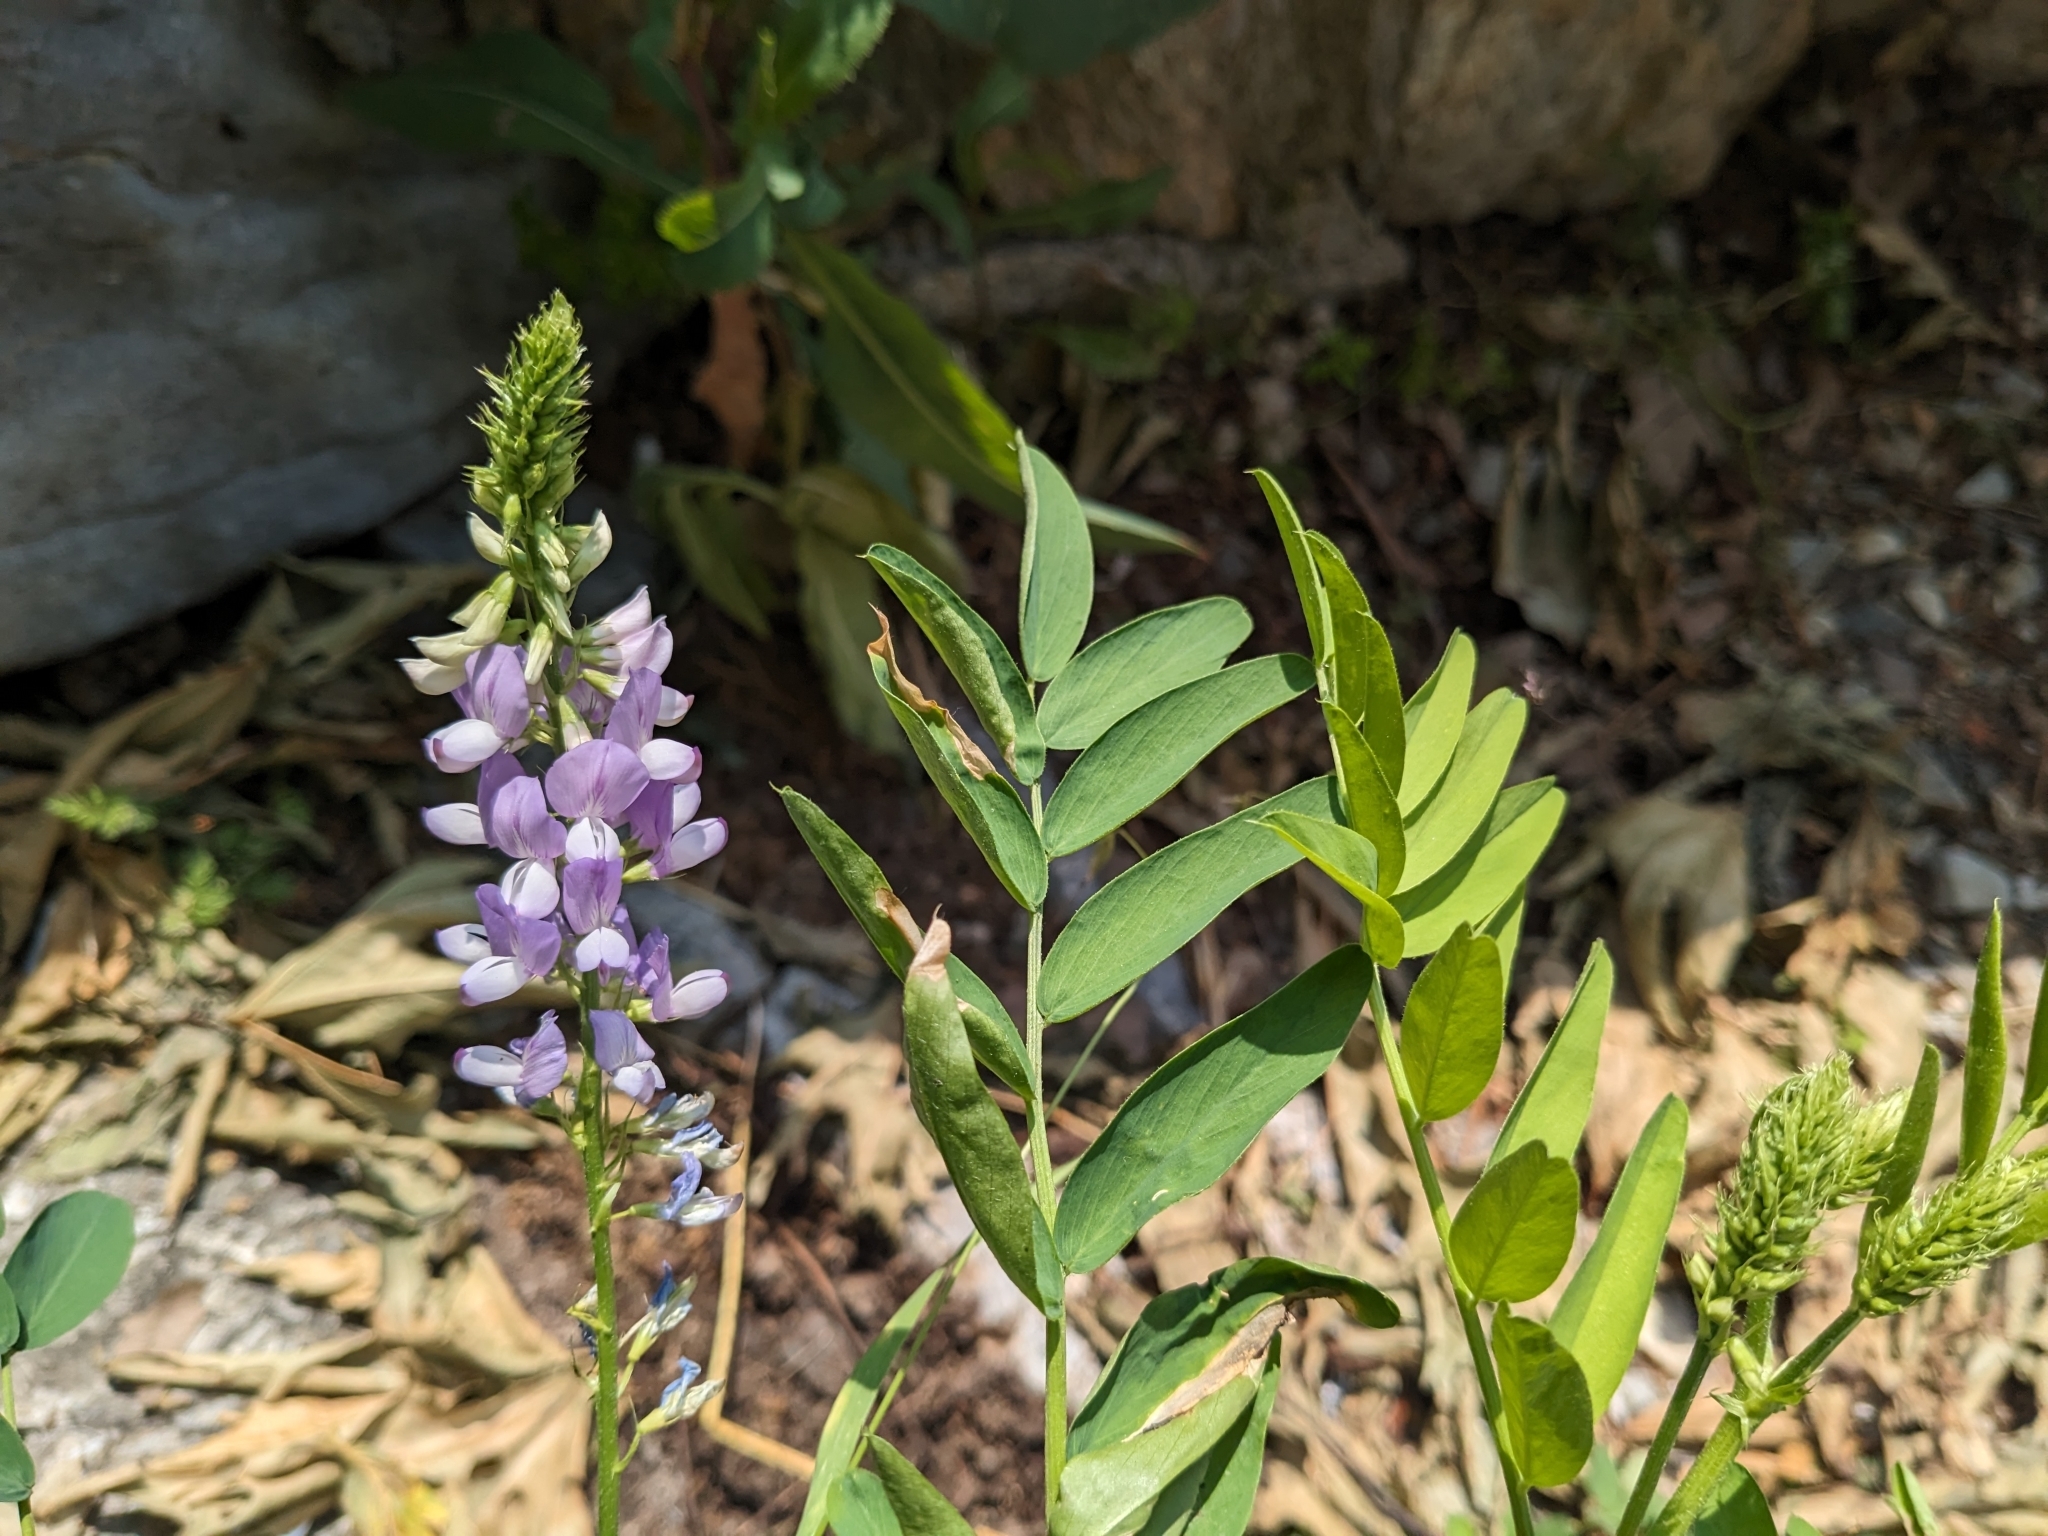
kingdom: Plantae
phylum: Tracheophyta
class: Magnoliopsida
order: Fabales
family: Fabaceae
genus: Galega
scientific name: Galega officinalis
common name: Goat's-rue
